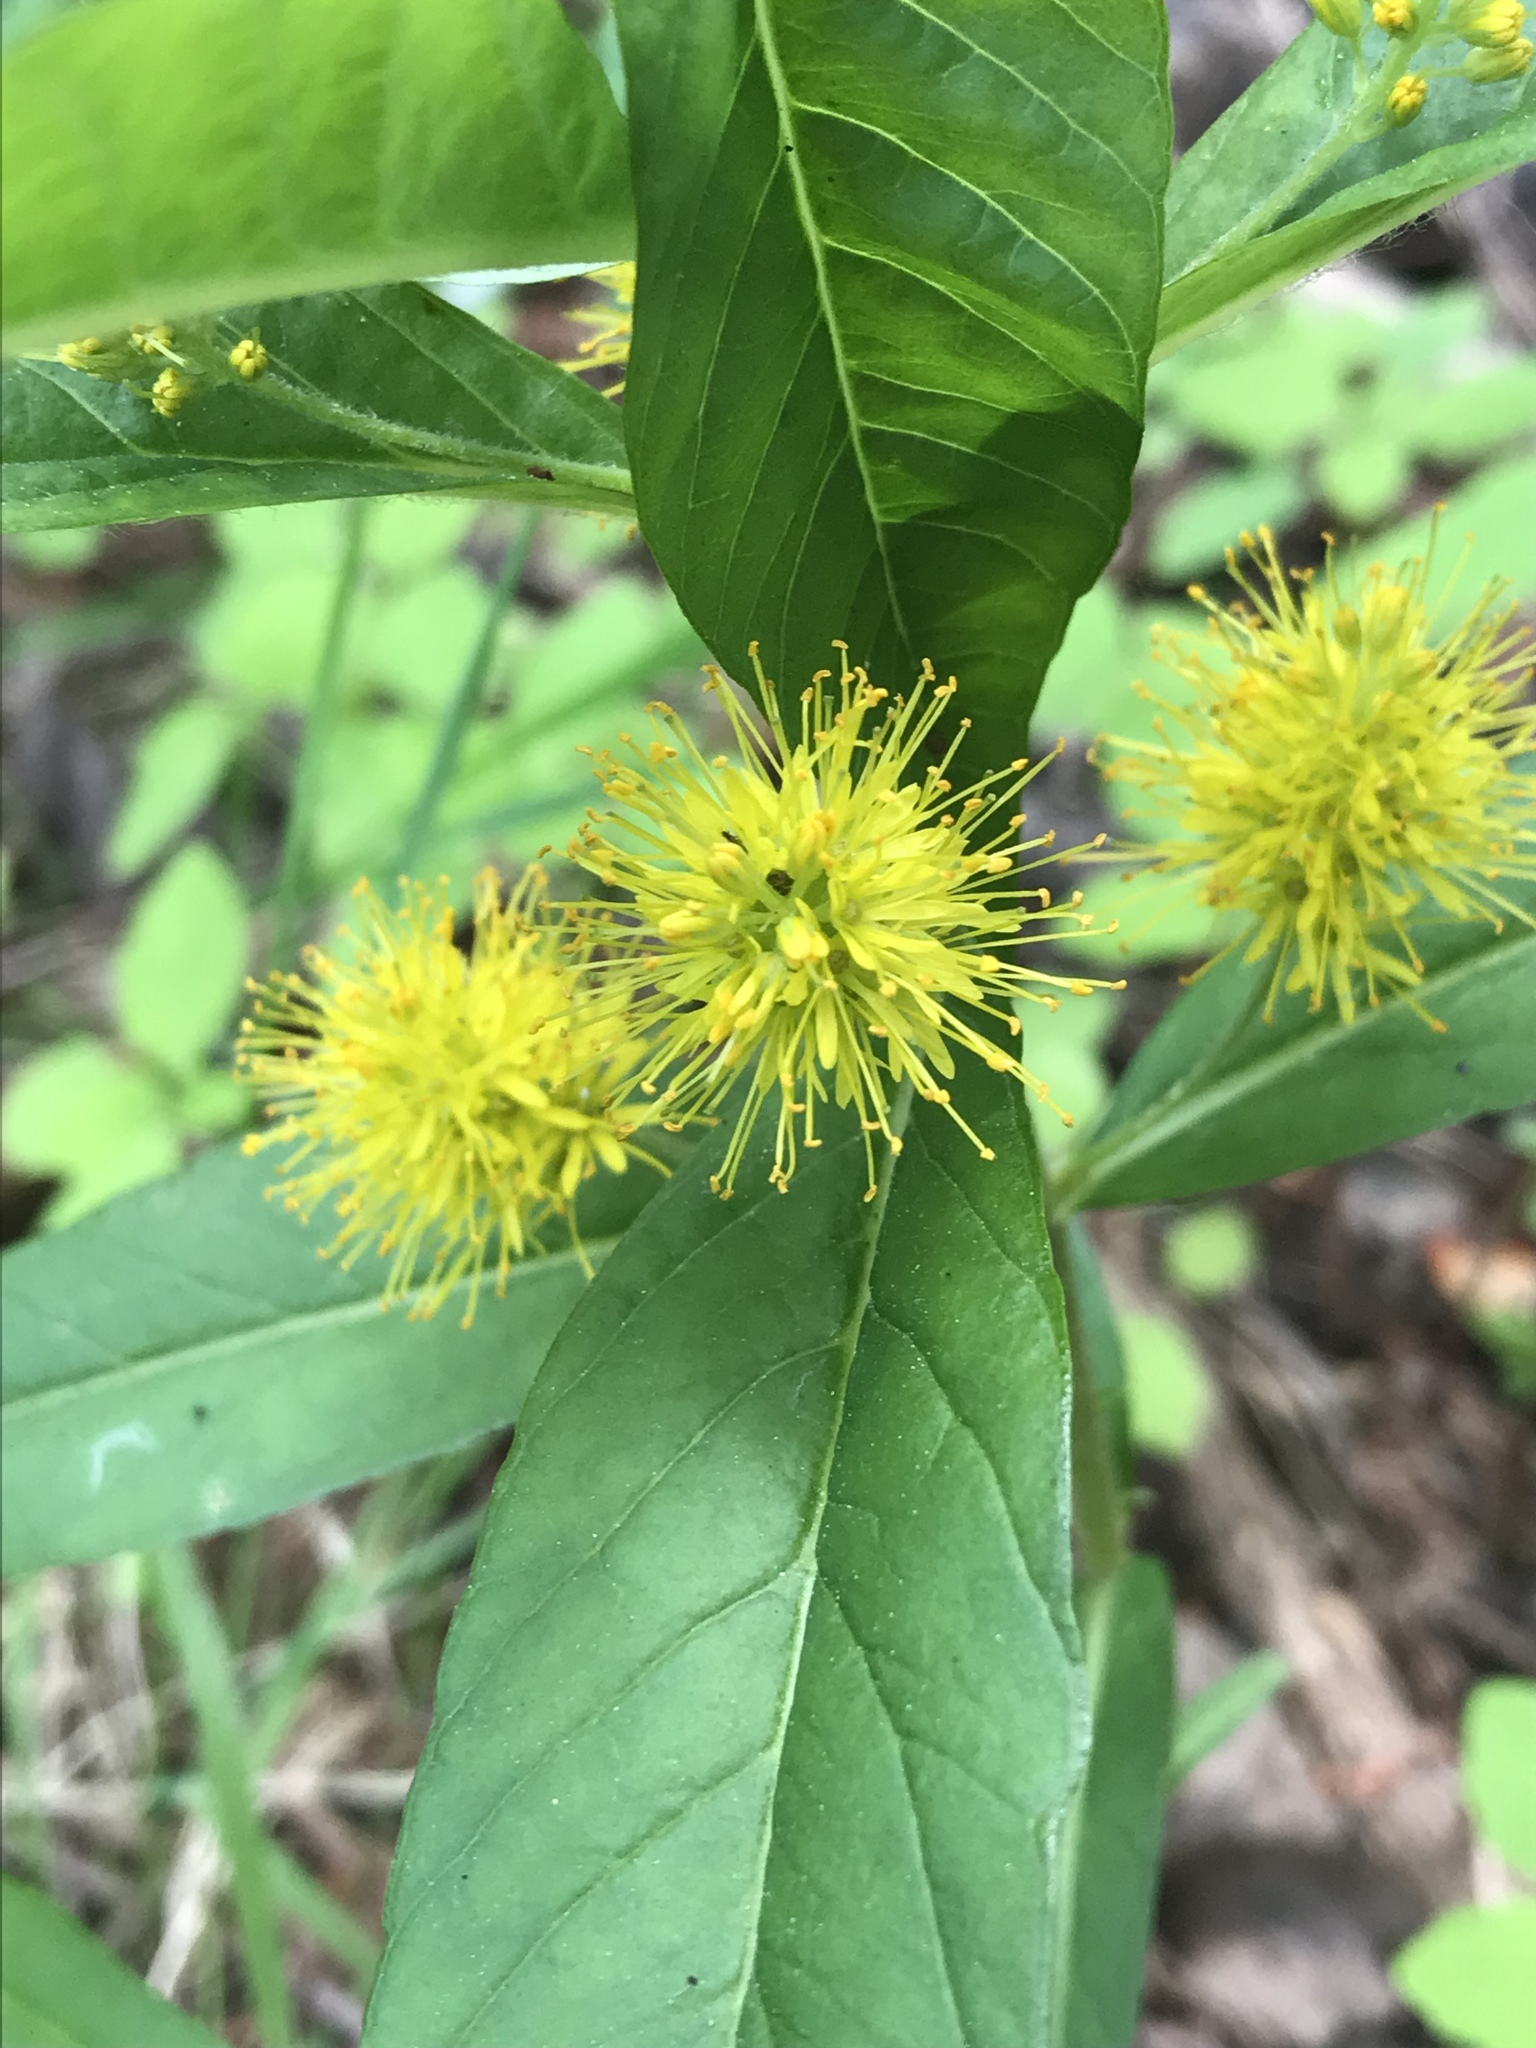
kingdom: Plantae
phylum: Tracheophyta
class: Magnoliopsida
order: Ericales
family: Primulaceae
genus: Lysimachia
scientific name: Lysimachia thyrsiflora
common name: Tufted loosestrife
